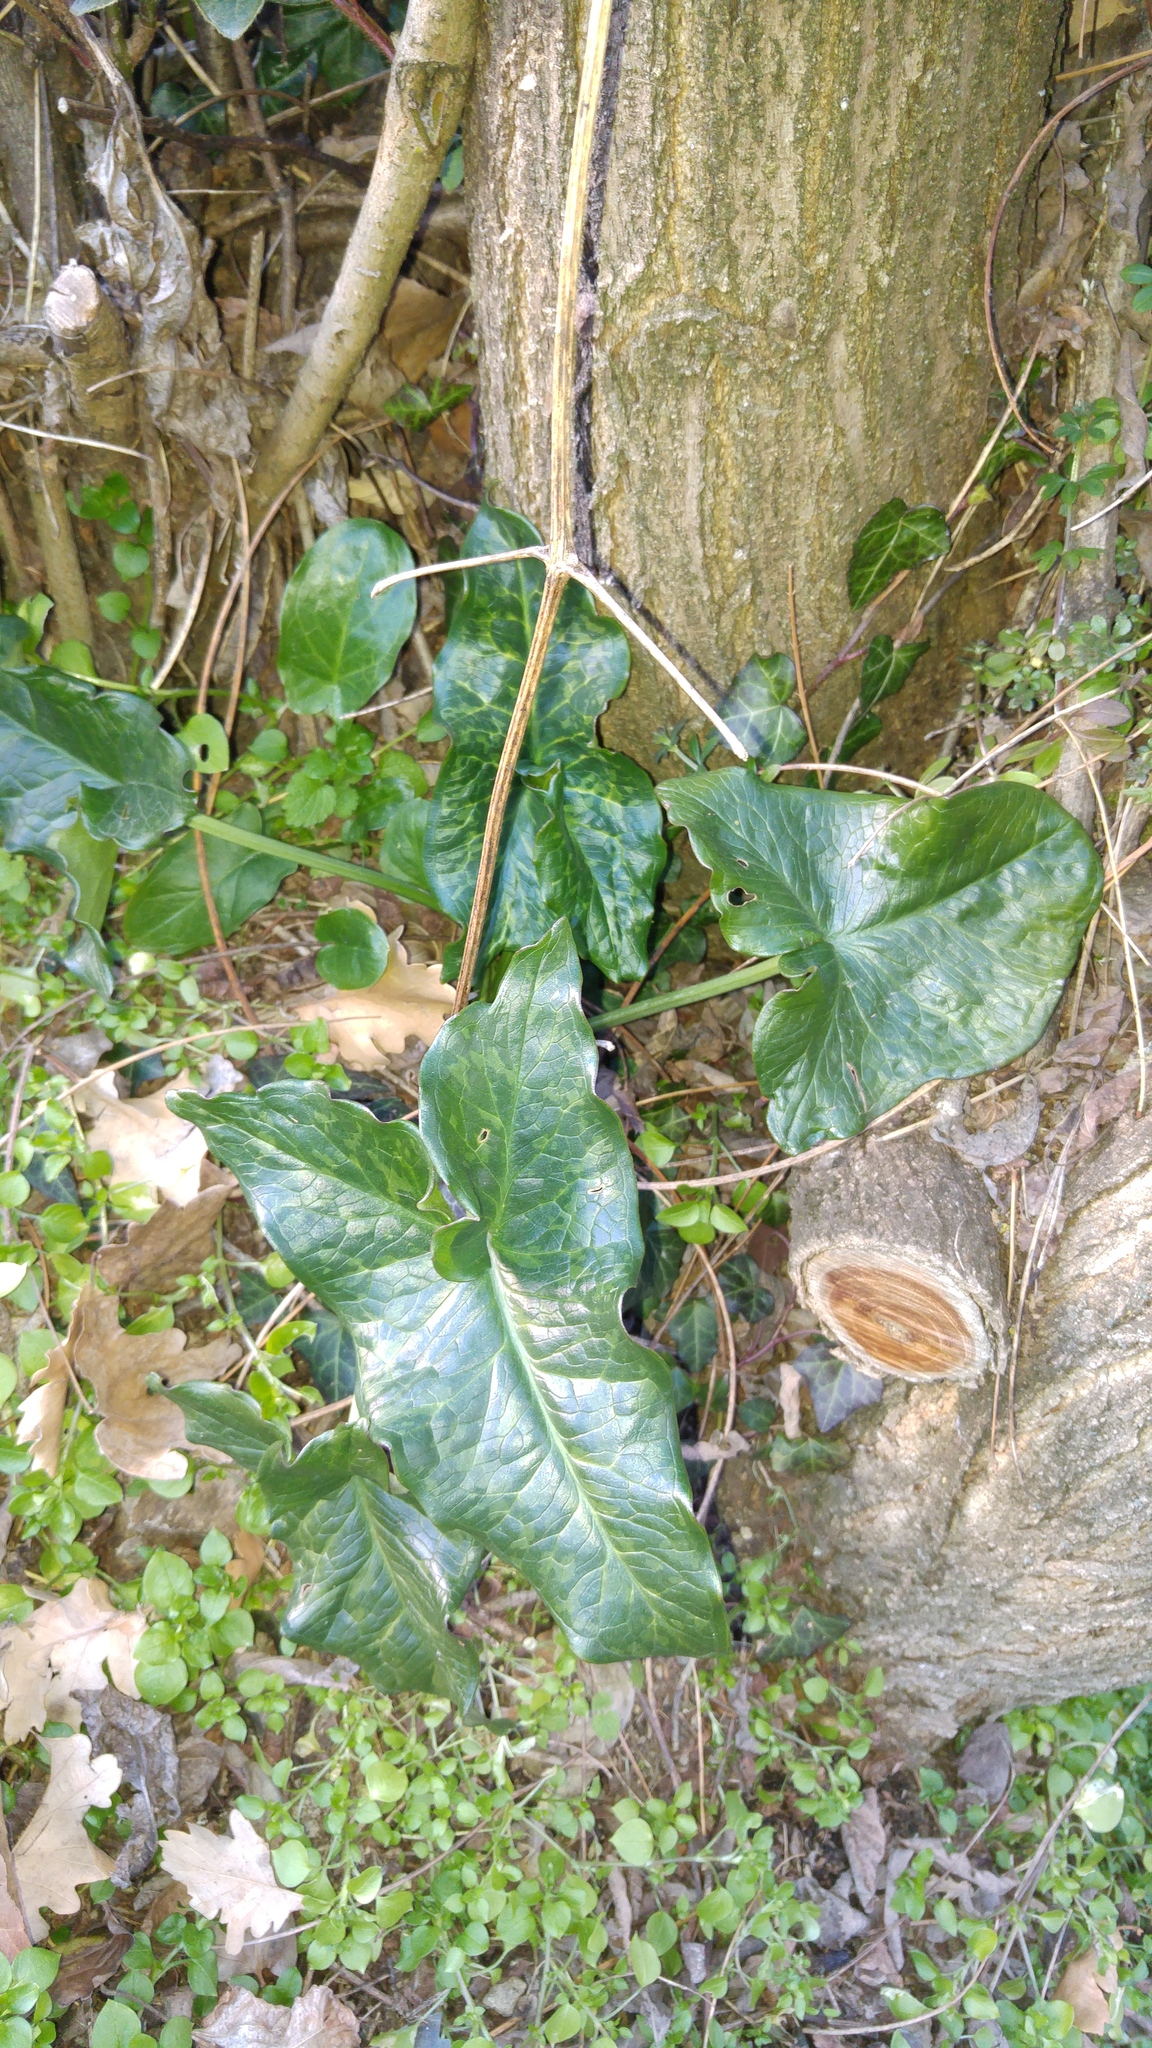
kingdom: Plantae
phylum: Tracheophyta
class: Liliopsida
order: Alismatales
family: Araceae
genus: Arum
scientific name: Arum italicum
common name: Italian lords-and-ladies
